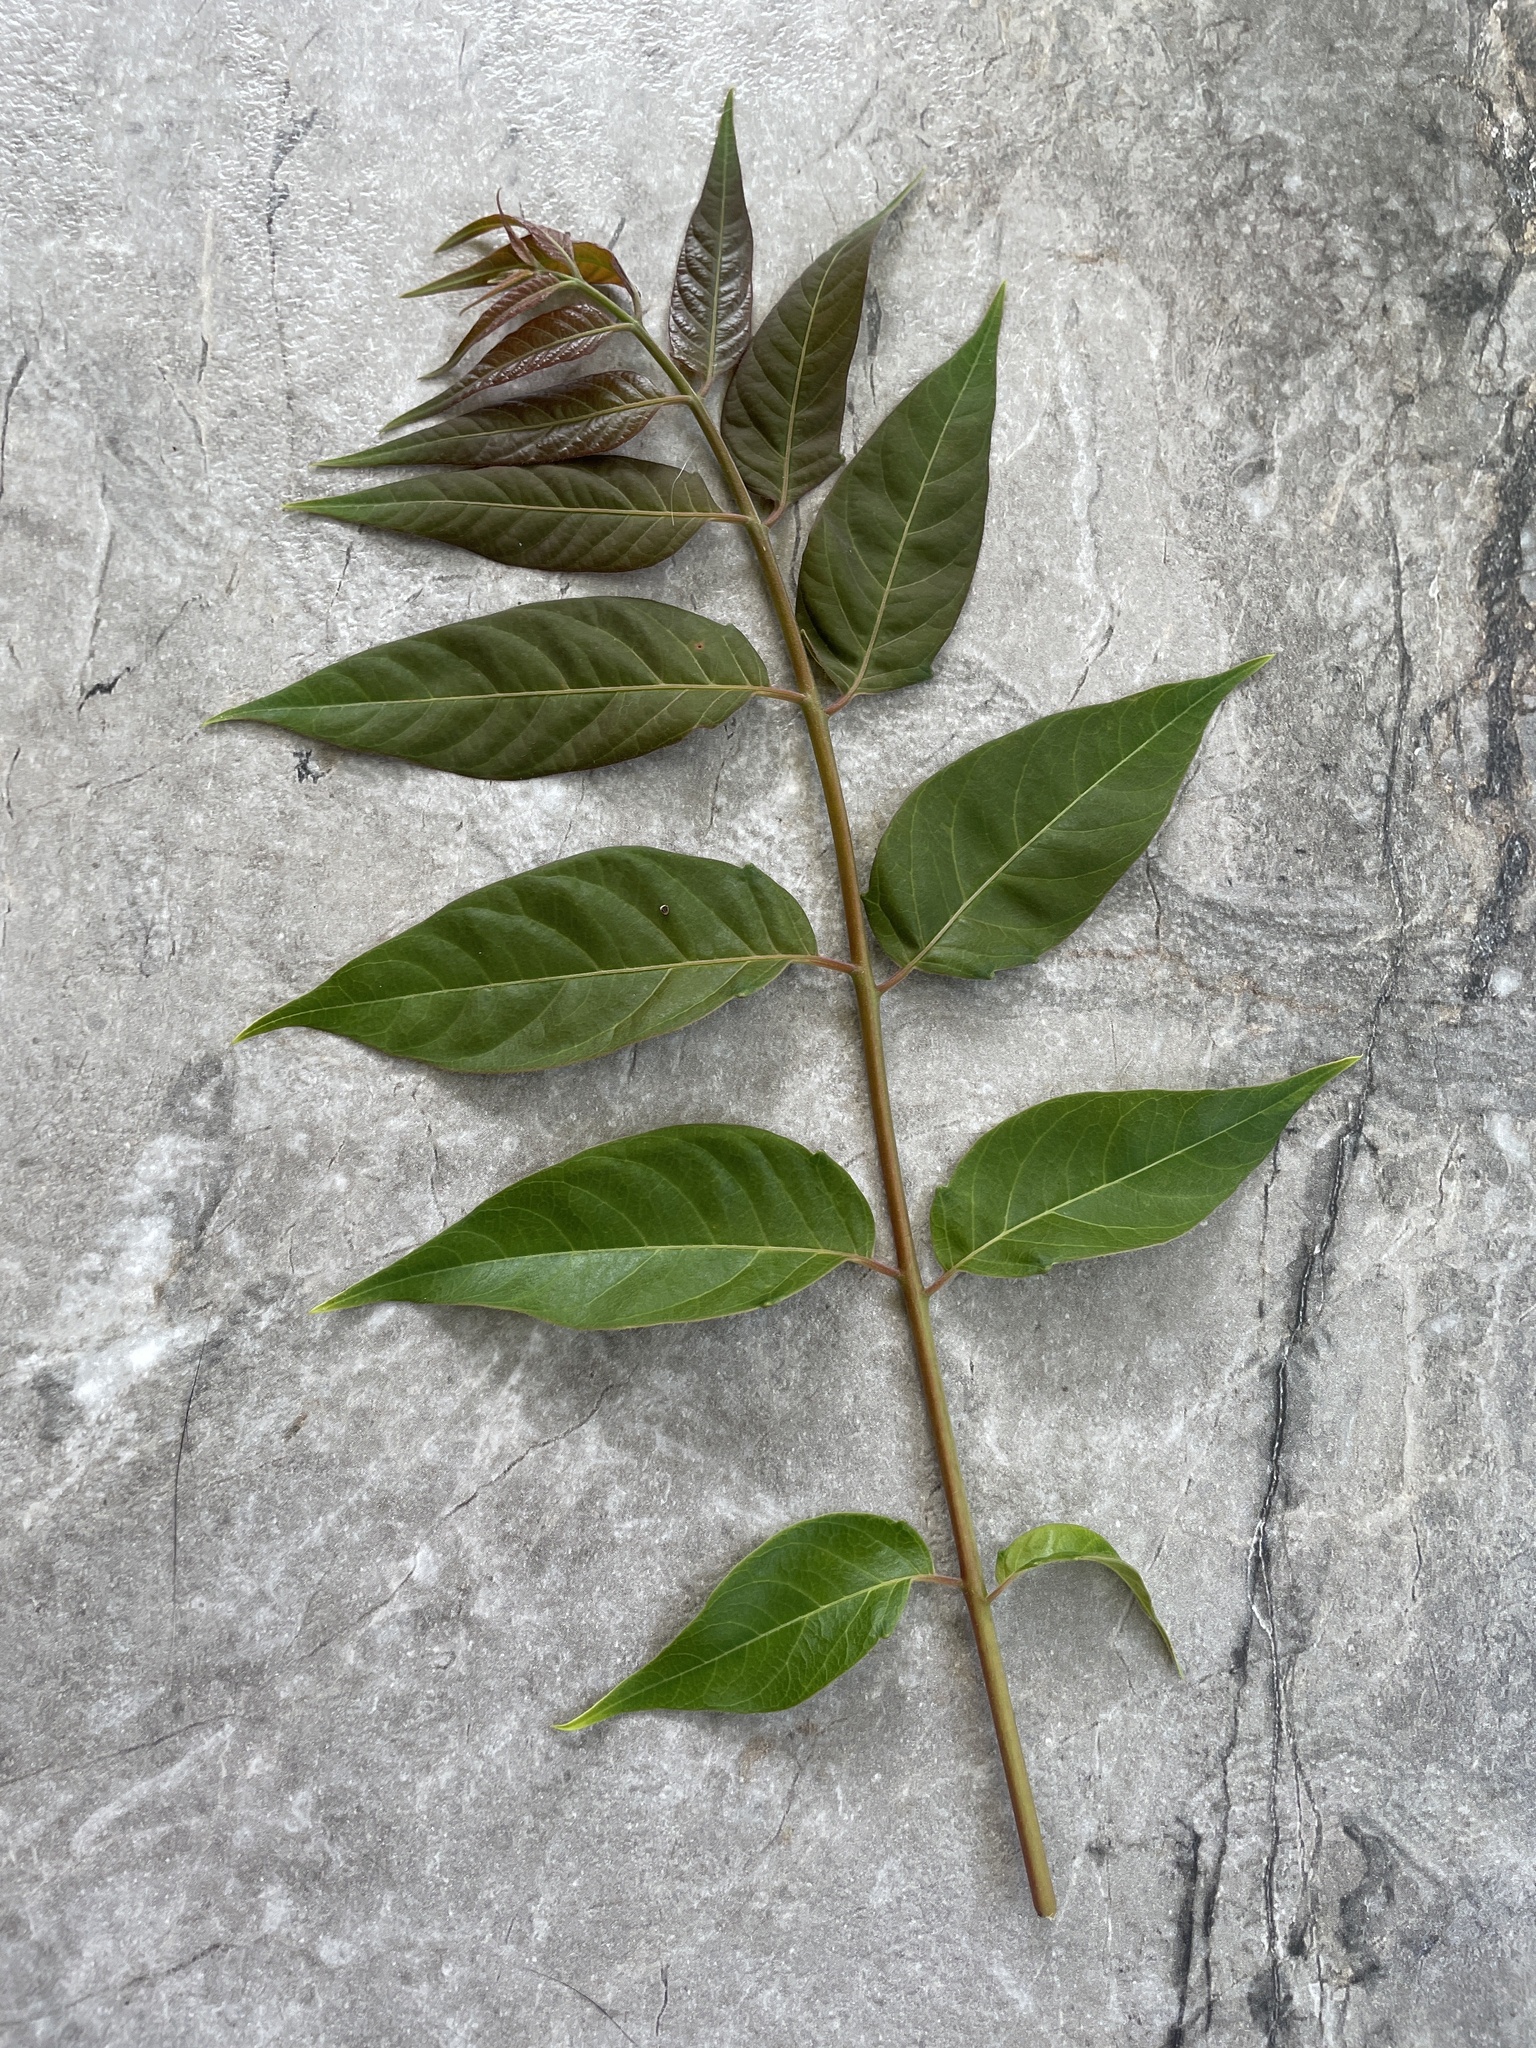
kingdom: Plantae
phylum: Tracheophyta
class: Magnoliopsida
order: Sapindales
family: Simaroubaceae
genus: Ailanthus
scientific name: Ailanthus altissima
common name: Tree-of-heaven
